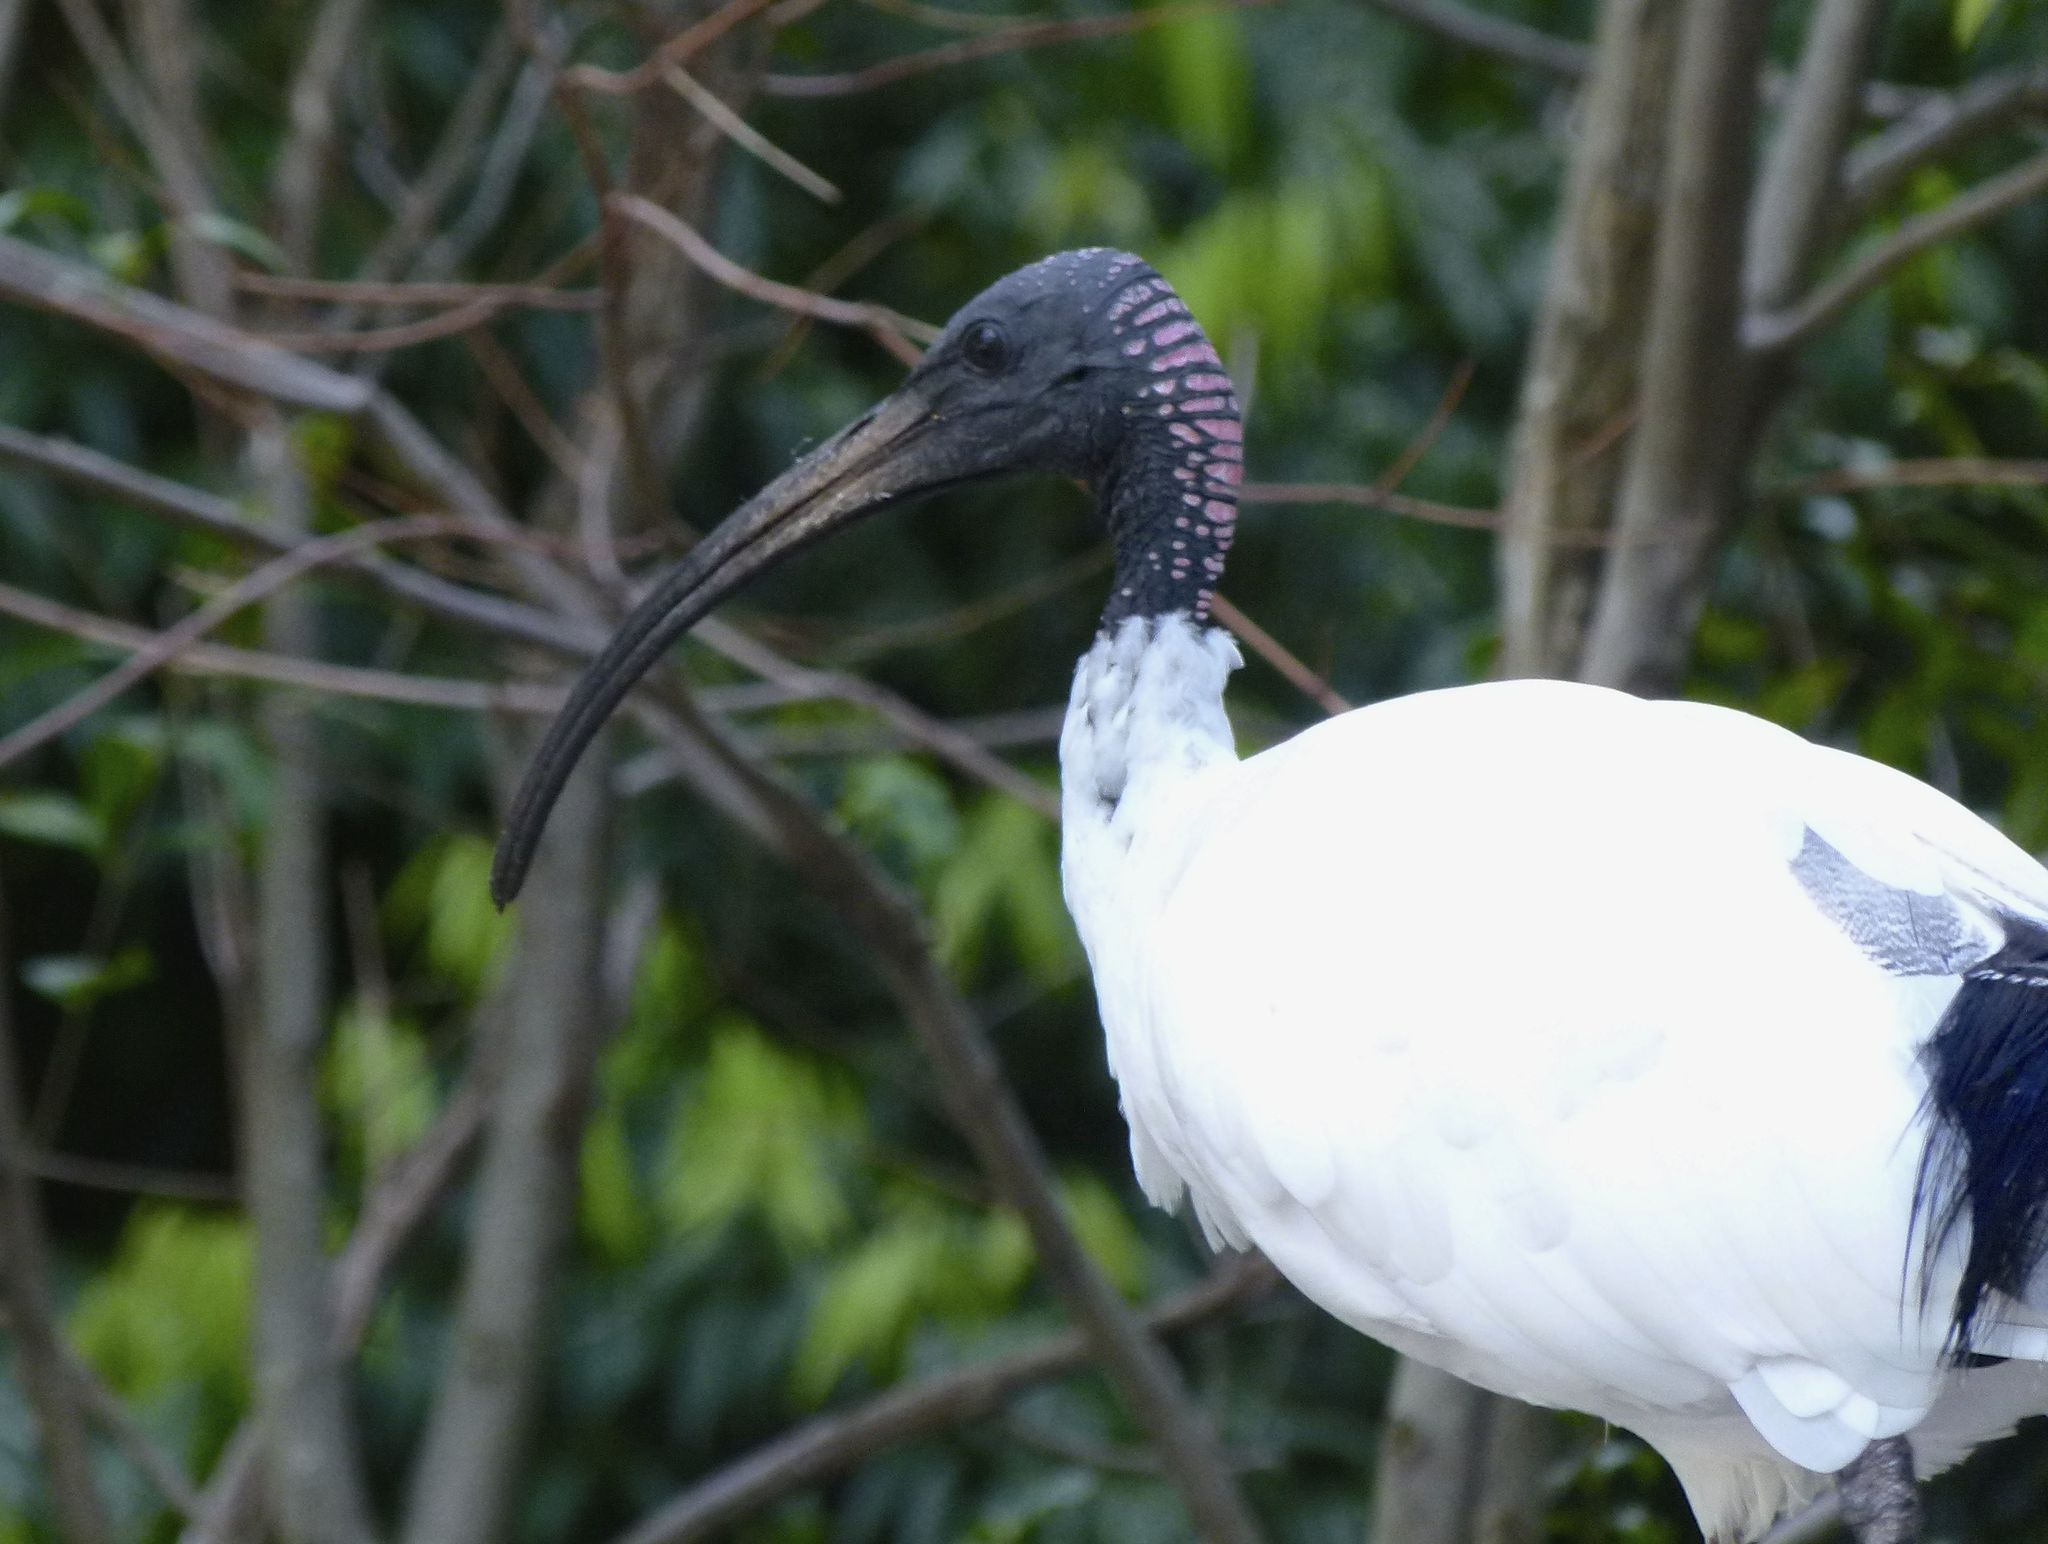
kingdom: Animalia
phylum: Chordata
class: Aves
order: Pelecaniformes
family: Threskiornithidae
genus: Threskiornis
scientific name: Threskiornis molucca
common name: Australian white ibis
